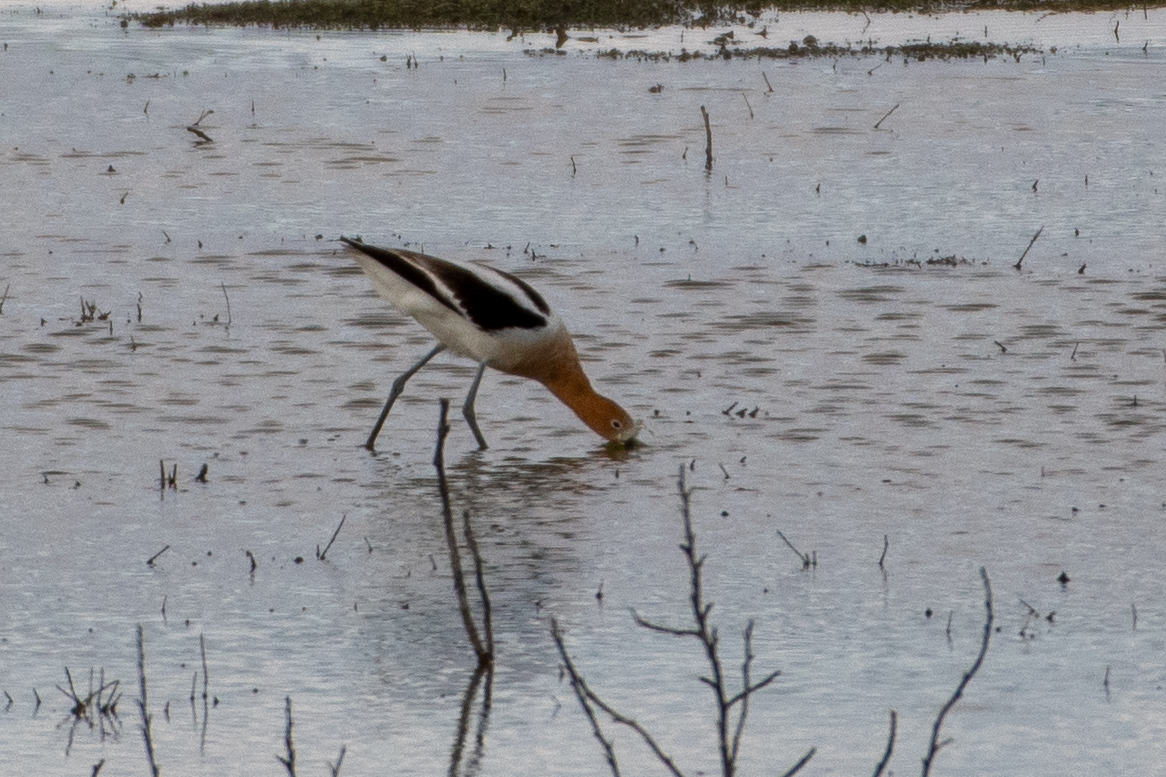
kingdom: Animalia
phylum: Chordata
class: Aves
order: Charadriiformes
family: Recurvirostridae
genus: Recurvirostra
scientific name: Recurvirostra americana
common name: American avocet
